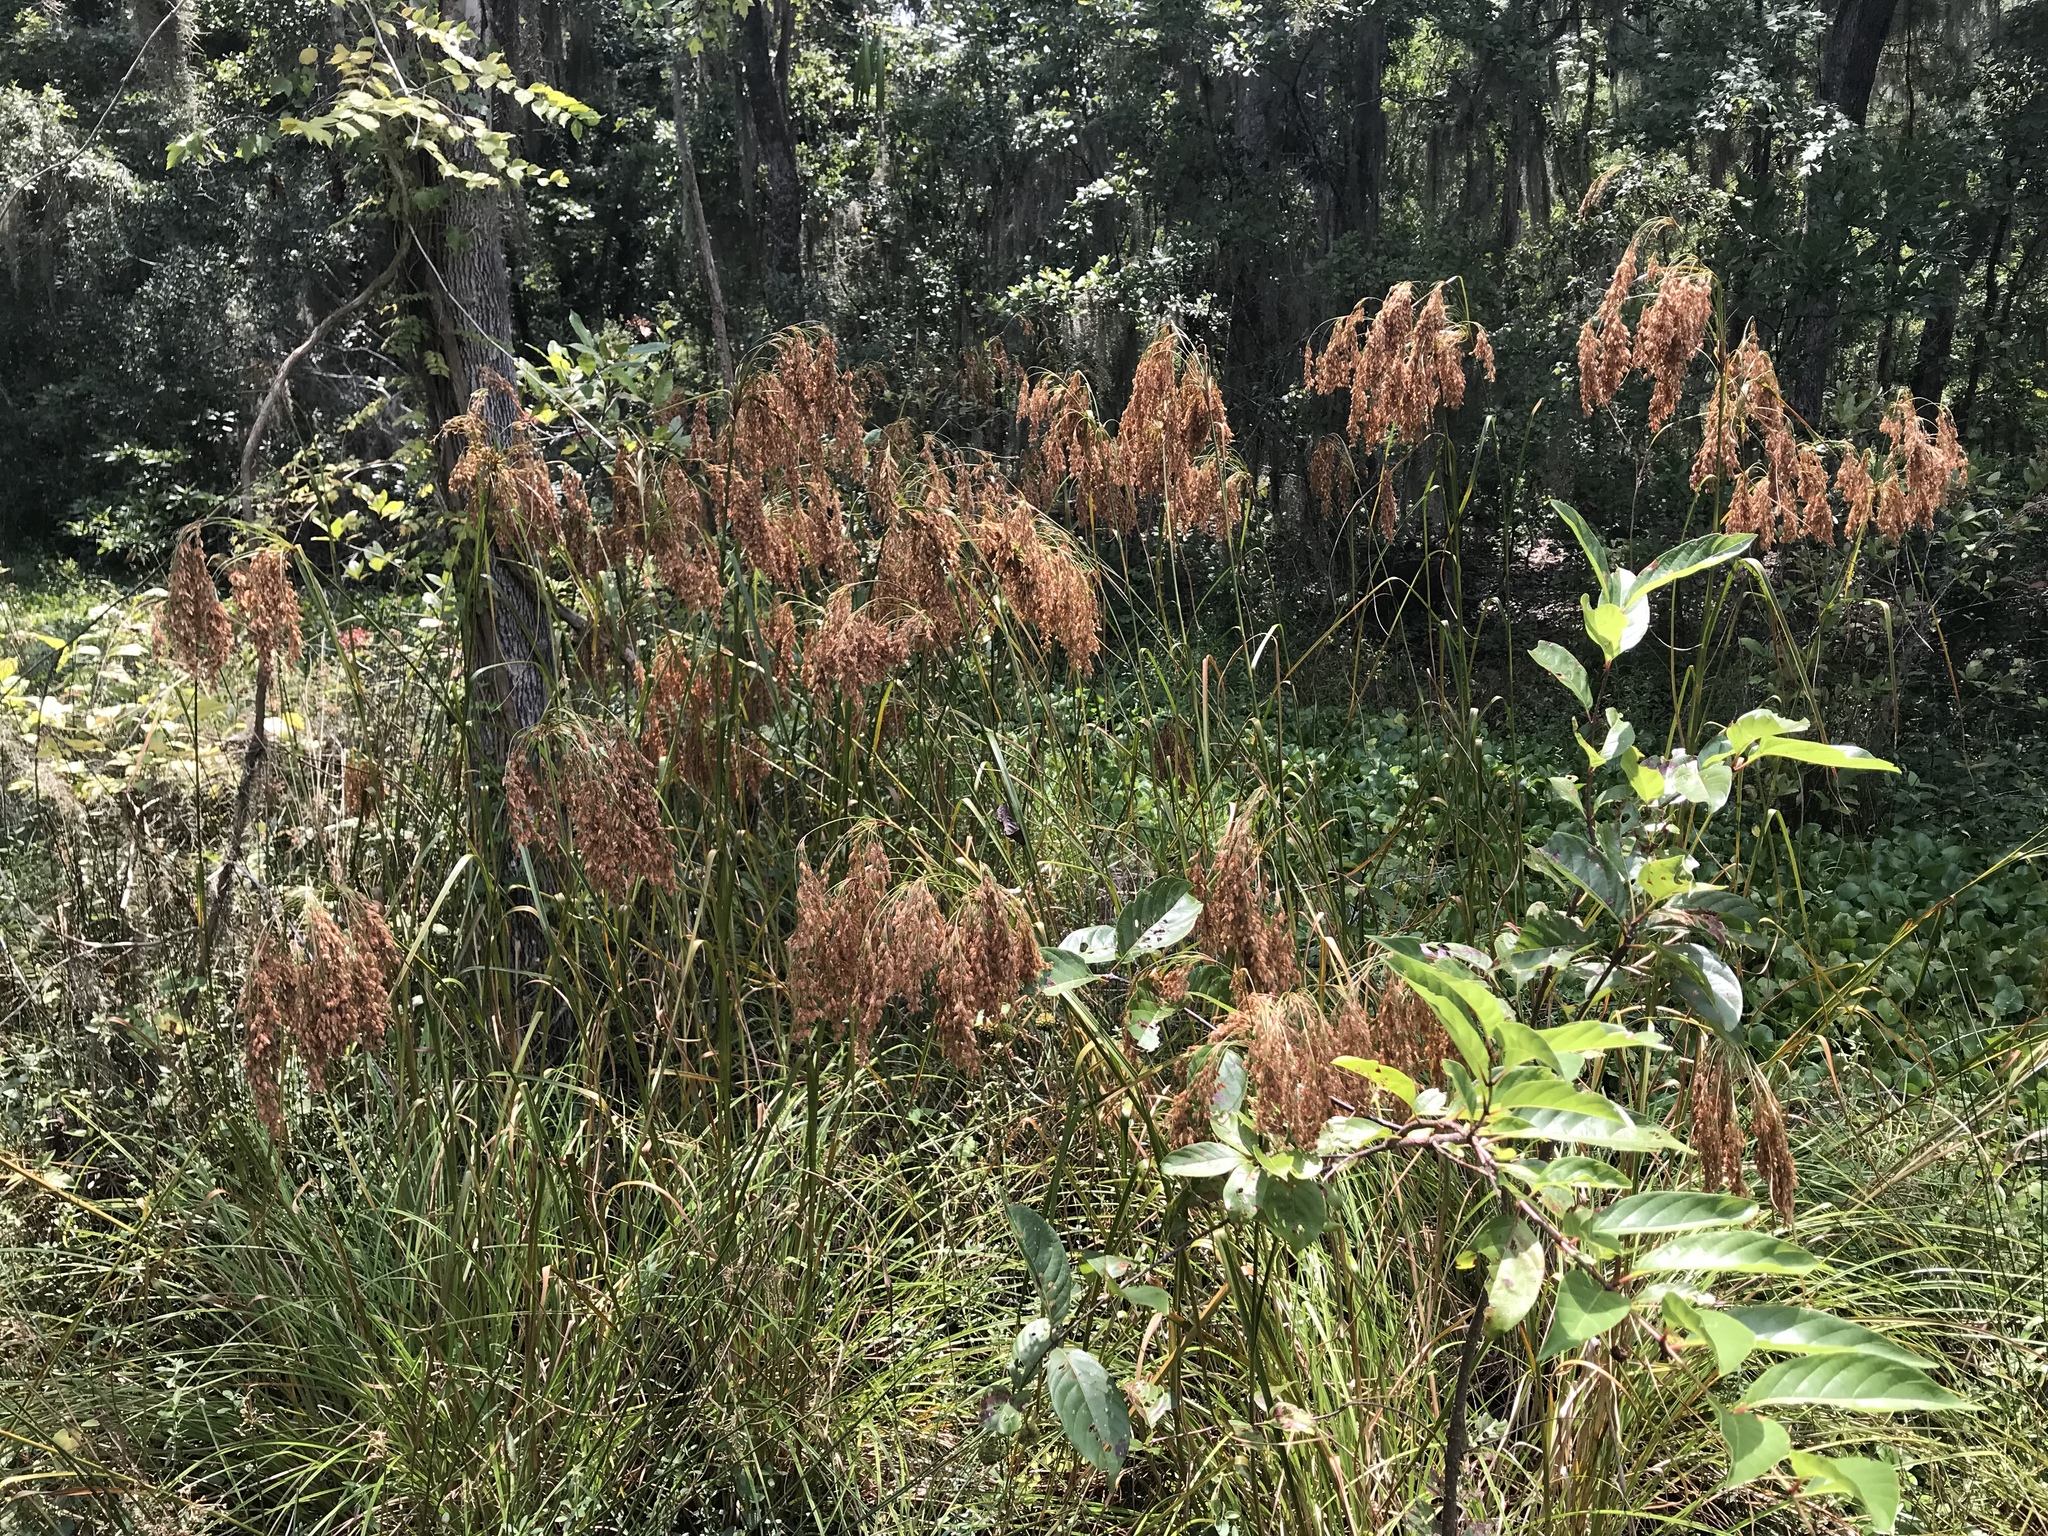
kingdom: Plantae
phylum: Tracheophyta
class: Liliopsida
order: Poales
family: Cyperaceae
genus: Scirpus
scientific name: Scirpus cyperinus
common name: Black-sheathed bulrush
